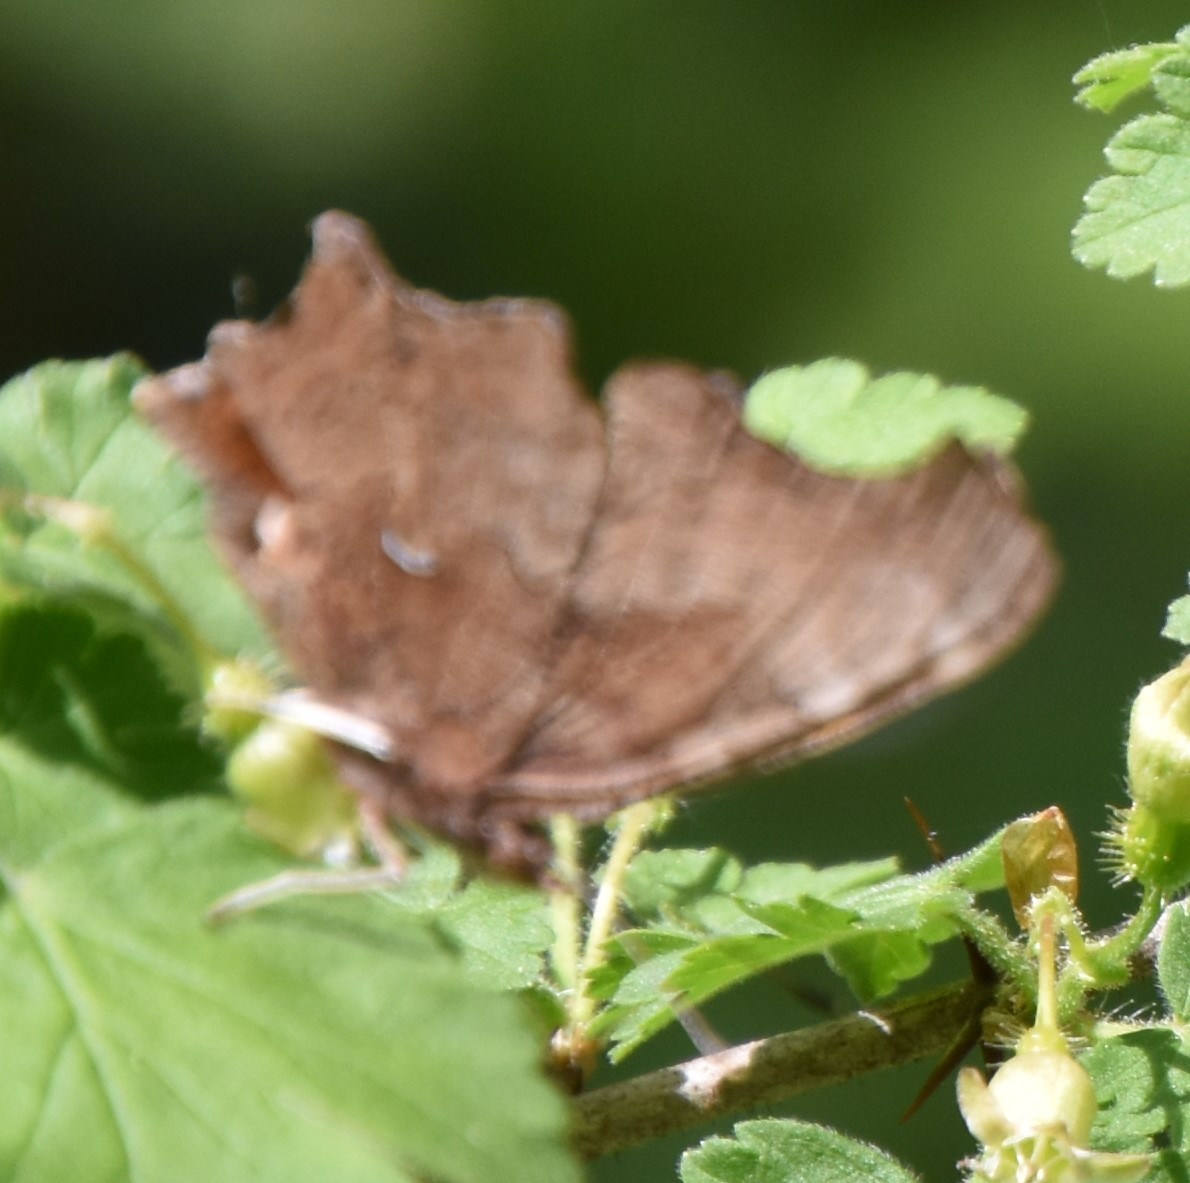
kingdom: Animalia
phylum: Arthropoda
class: Insecta
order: Lepidoptera
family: Nymphalidae
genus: Polygonia
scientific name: Polygonia comma
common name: Eastern comma
